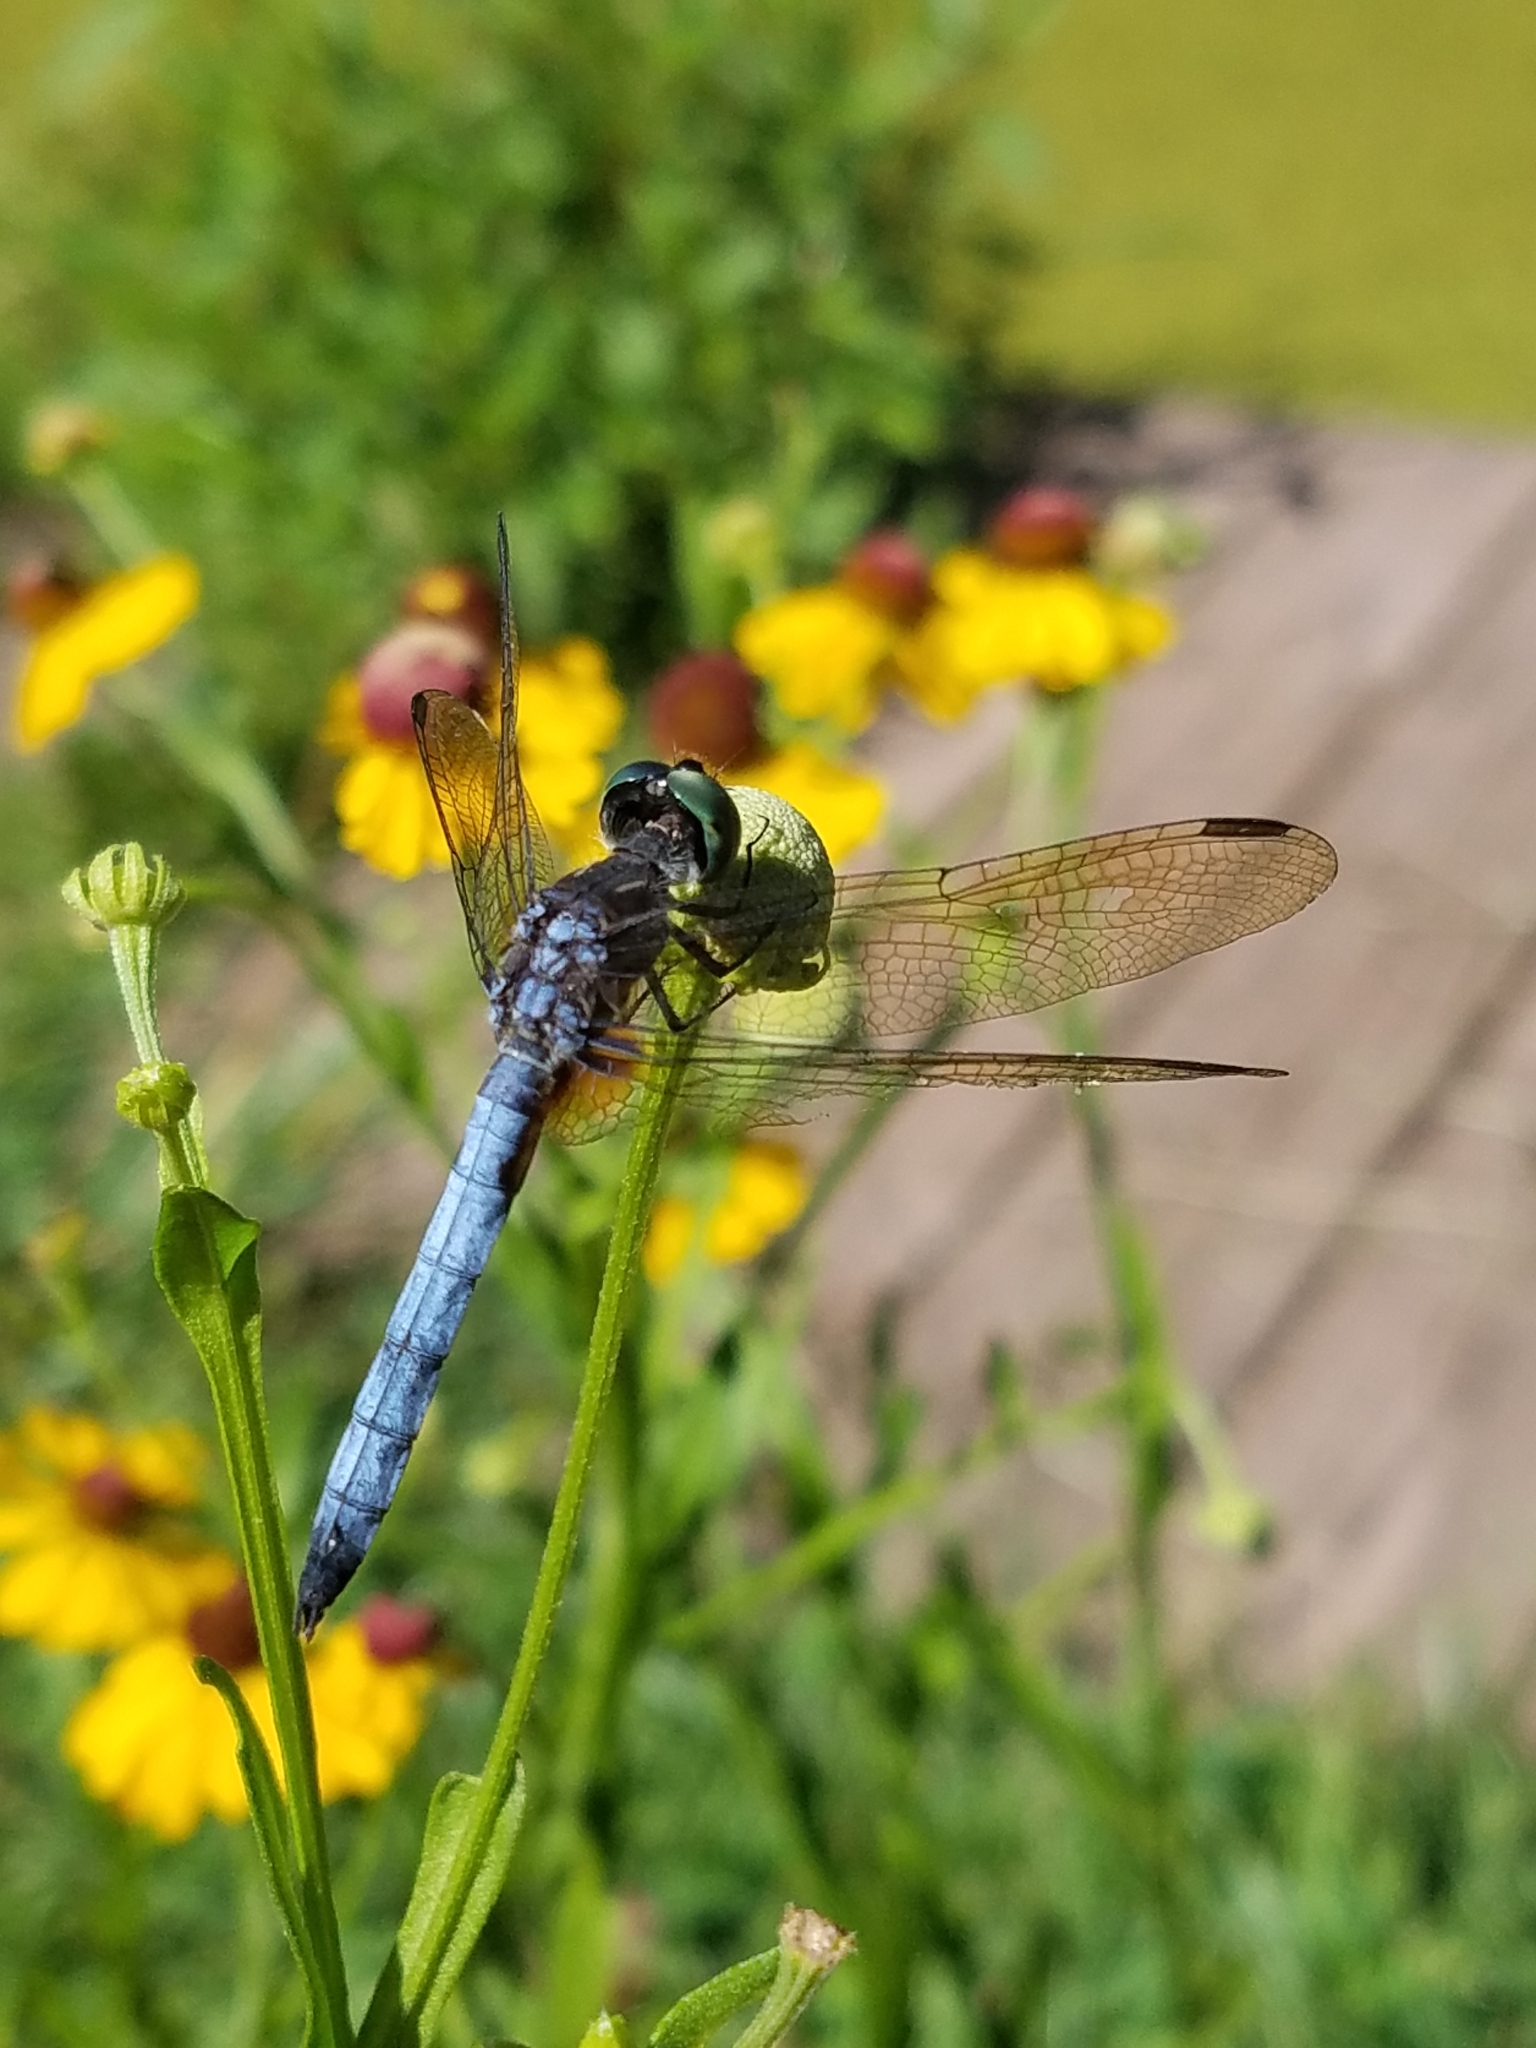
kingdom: Animalia
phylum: Arthropoda
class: Insecta
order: Odonata
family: Libellulidae
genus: Pachydiplax
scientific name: Pachydiplax longipennis
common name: Blue dasher
